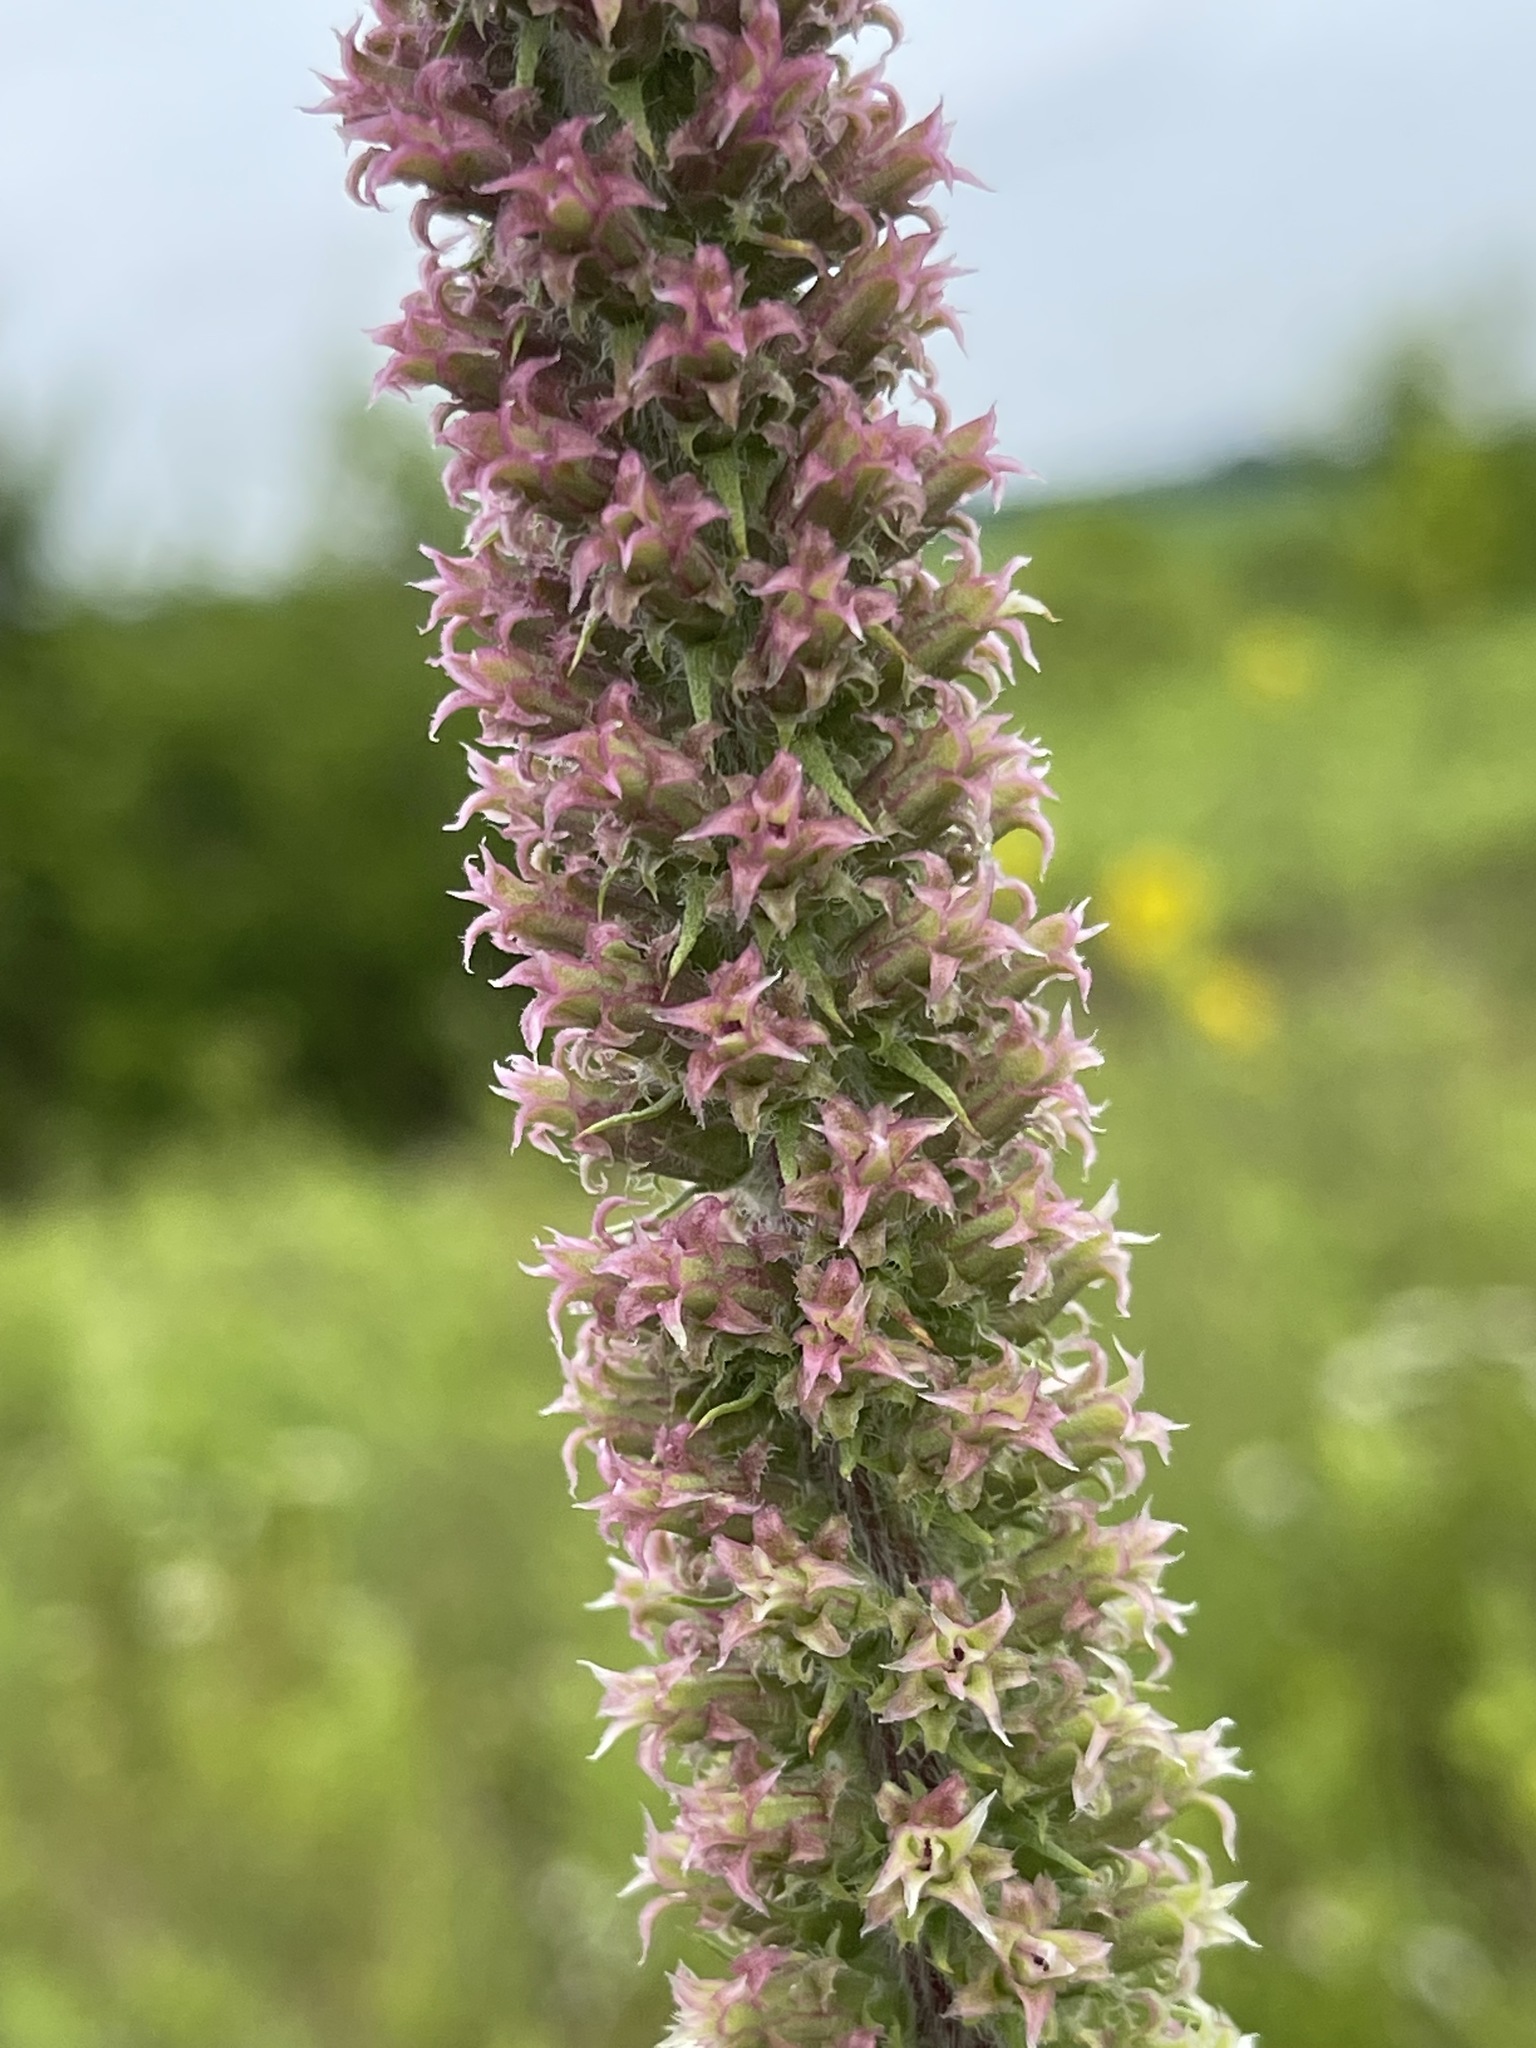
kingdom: Plantae
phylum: Tracheophyta
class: Magnoliopsida
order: Asterales
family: Asteraceae
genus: Liatris
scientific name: Liatris pycnostachya
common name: Cattail gayfeather
